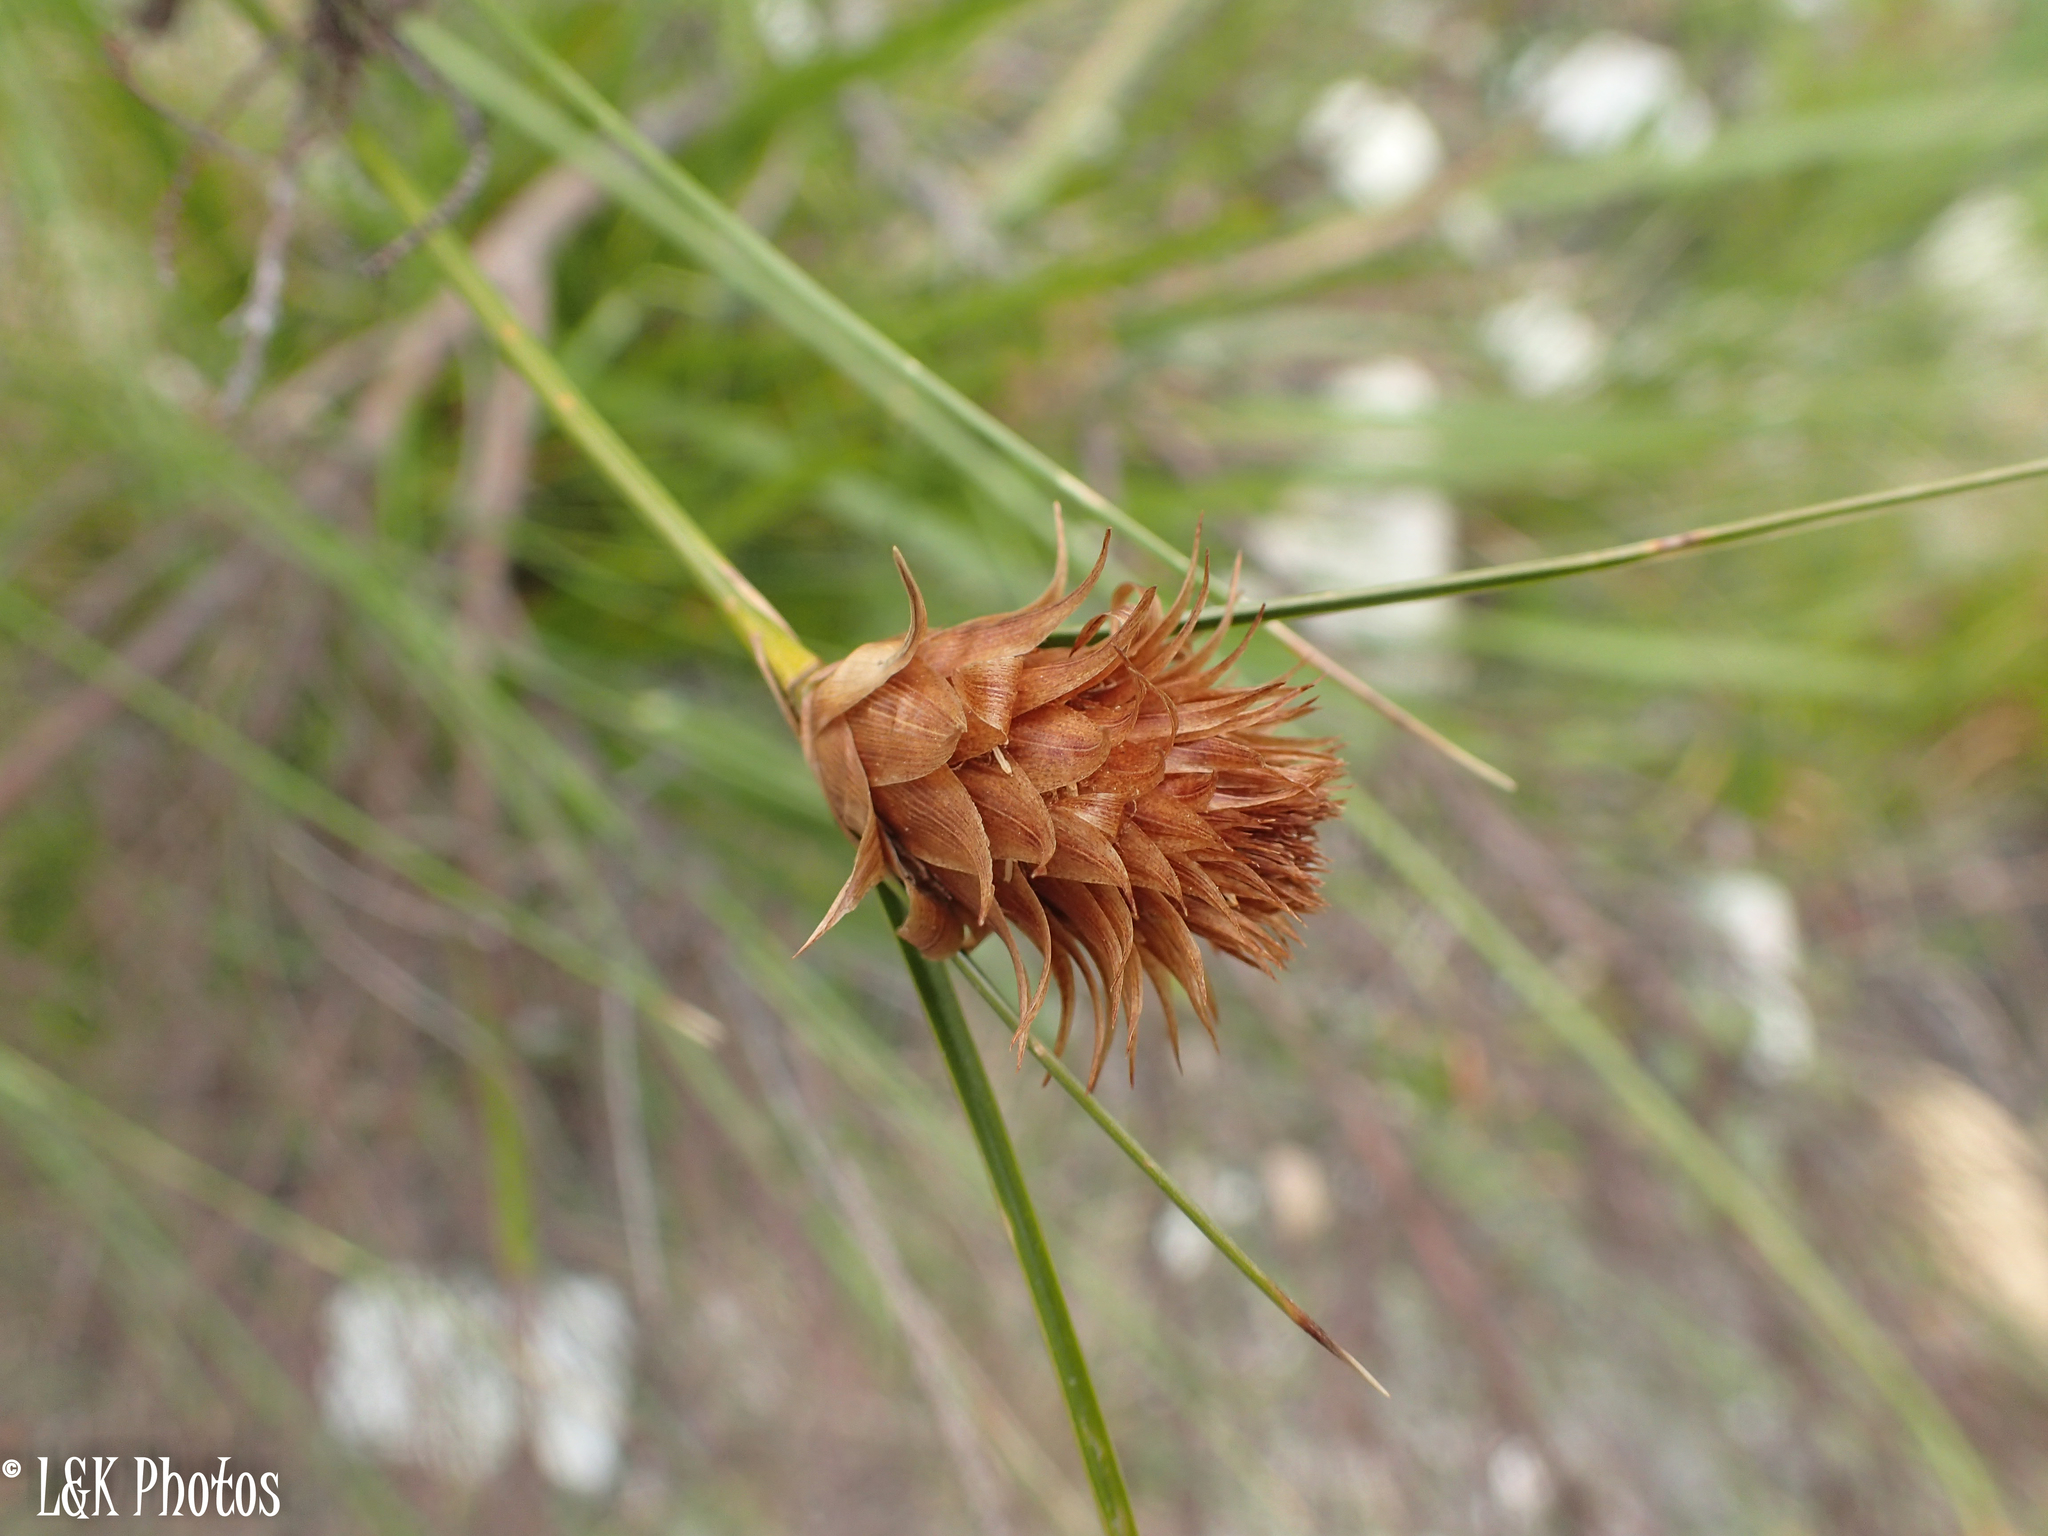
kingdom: Plantae
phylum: Tracheophyta
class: Liliopsida
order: Poales
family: Cyperaceae
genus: Ficinia
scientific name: Ficinia nigrescens
